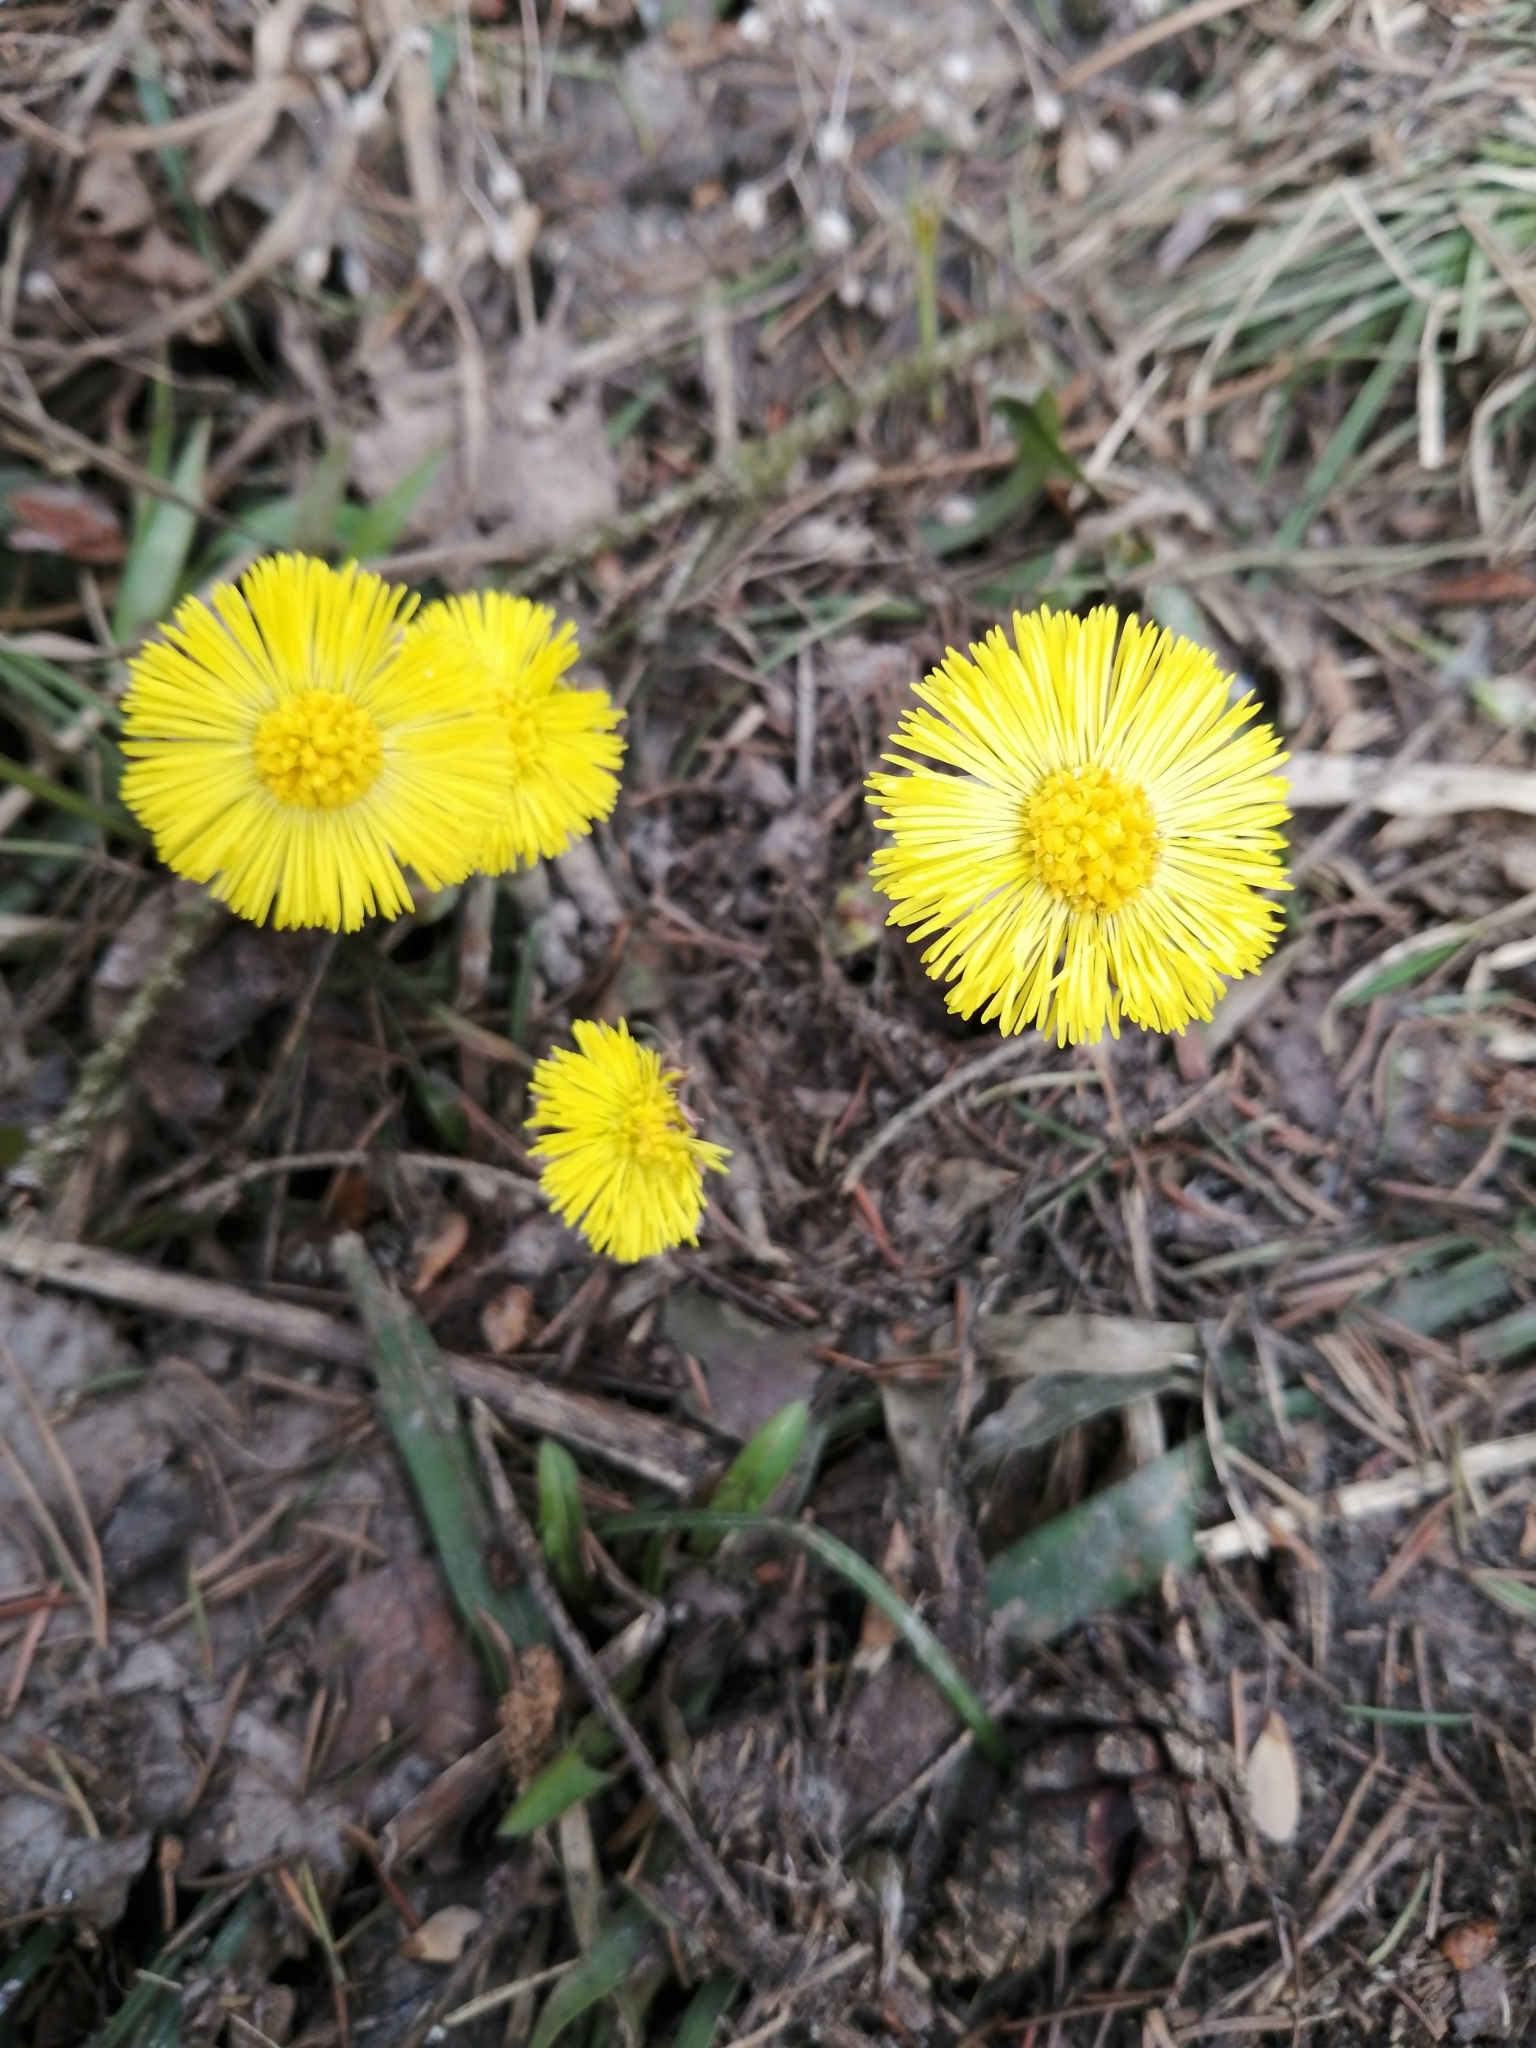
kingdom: Plantae
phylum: Tracheophyta
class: Magnoliopsida
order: Asterales
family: Asteraceae
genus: Tussilago
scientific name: Tussilago farfara
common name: Coltsfoot
